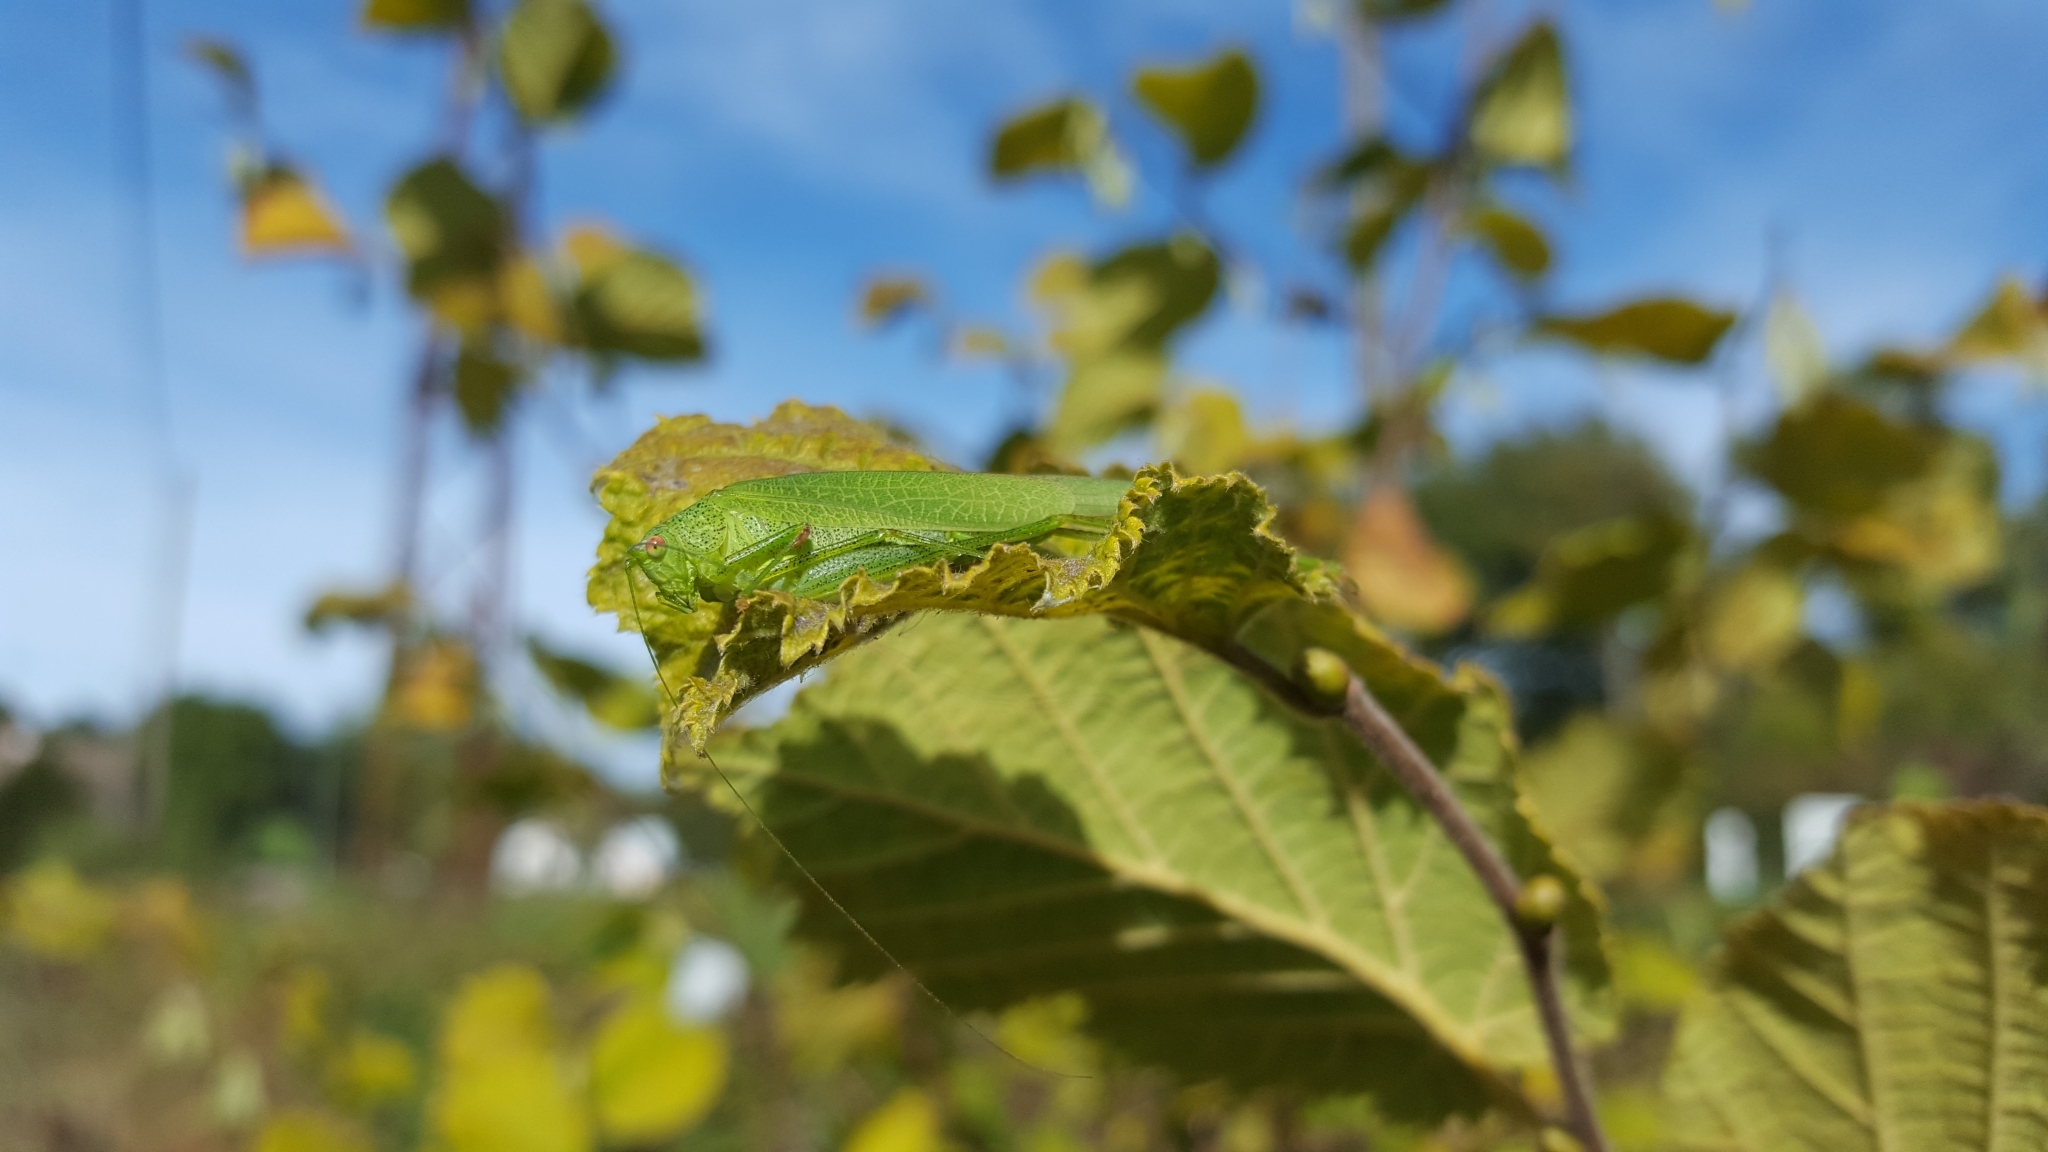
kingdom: Animalia
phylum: Arthropoda
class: Insecta
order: Orthoptera
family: Tettigoniidae
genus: Phaneroptera
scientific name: Phaneroptera nana
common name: Southern sickle bush-cricket
